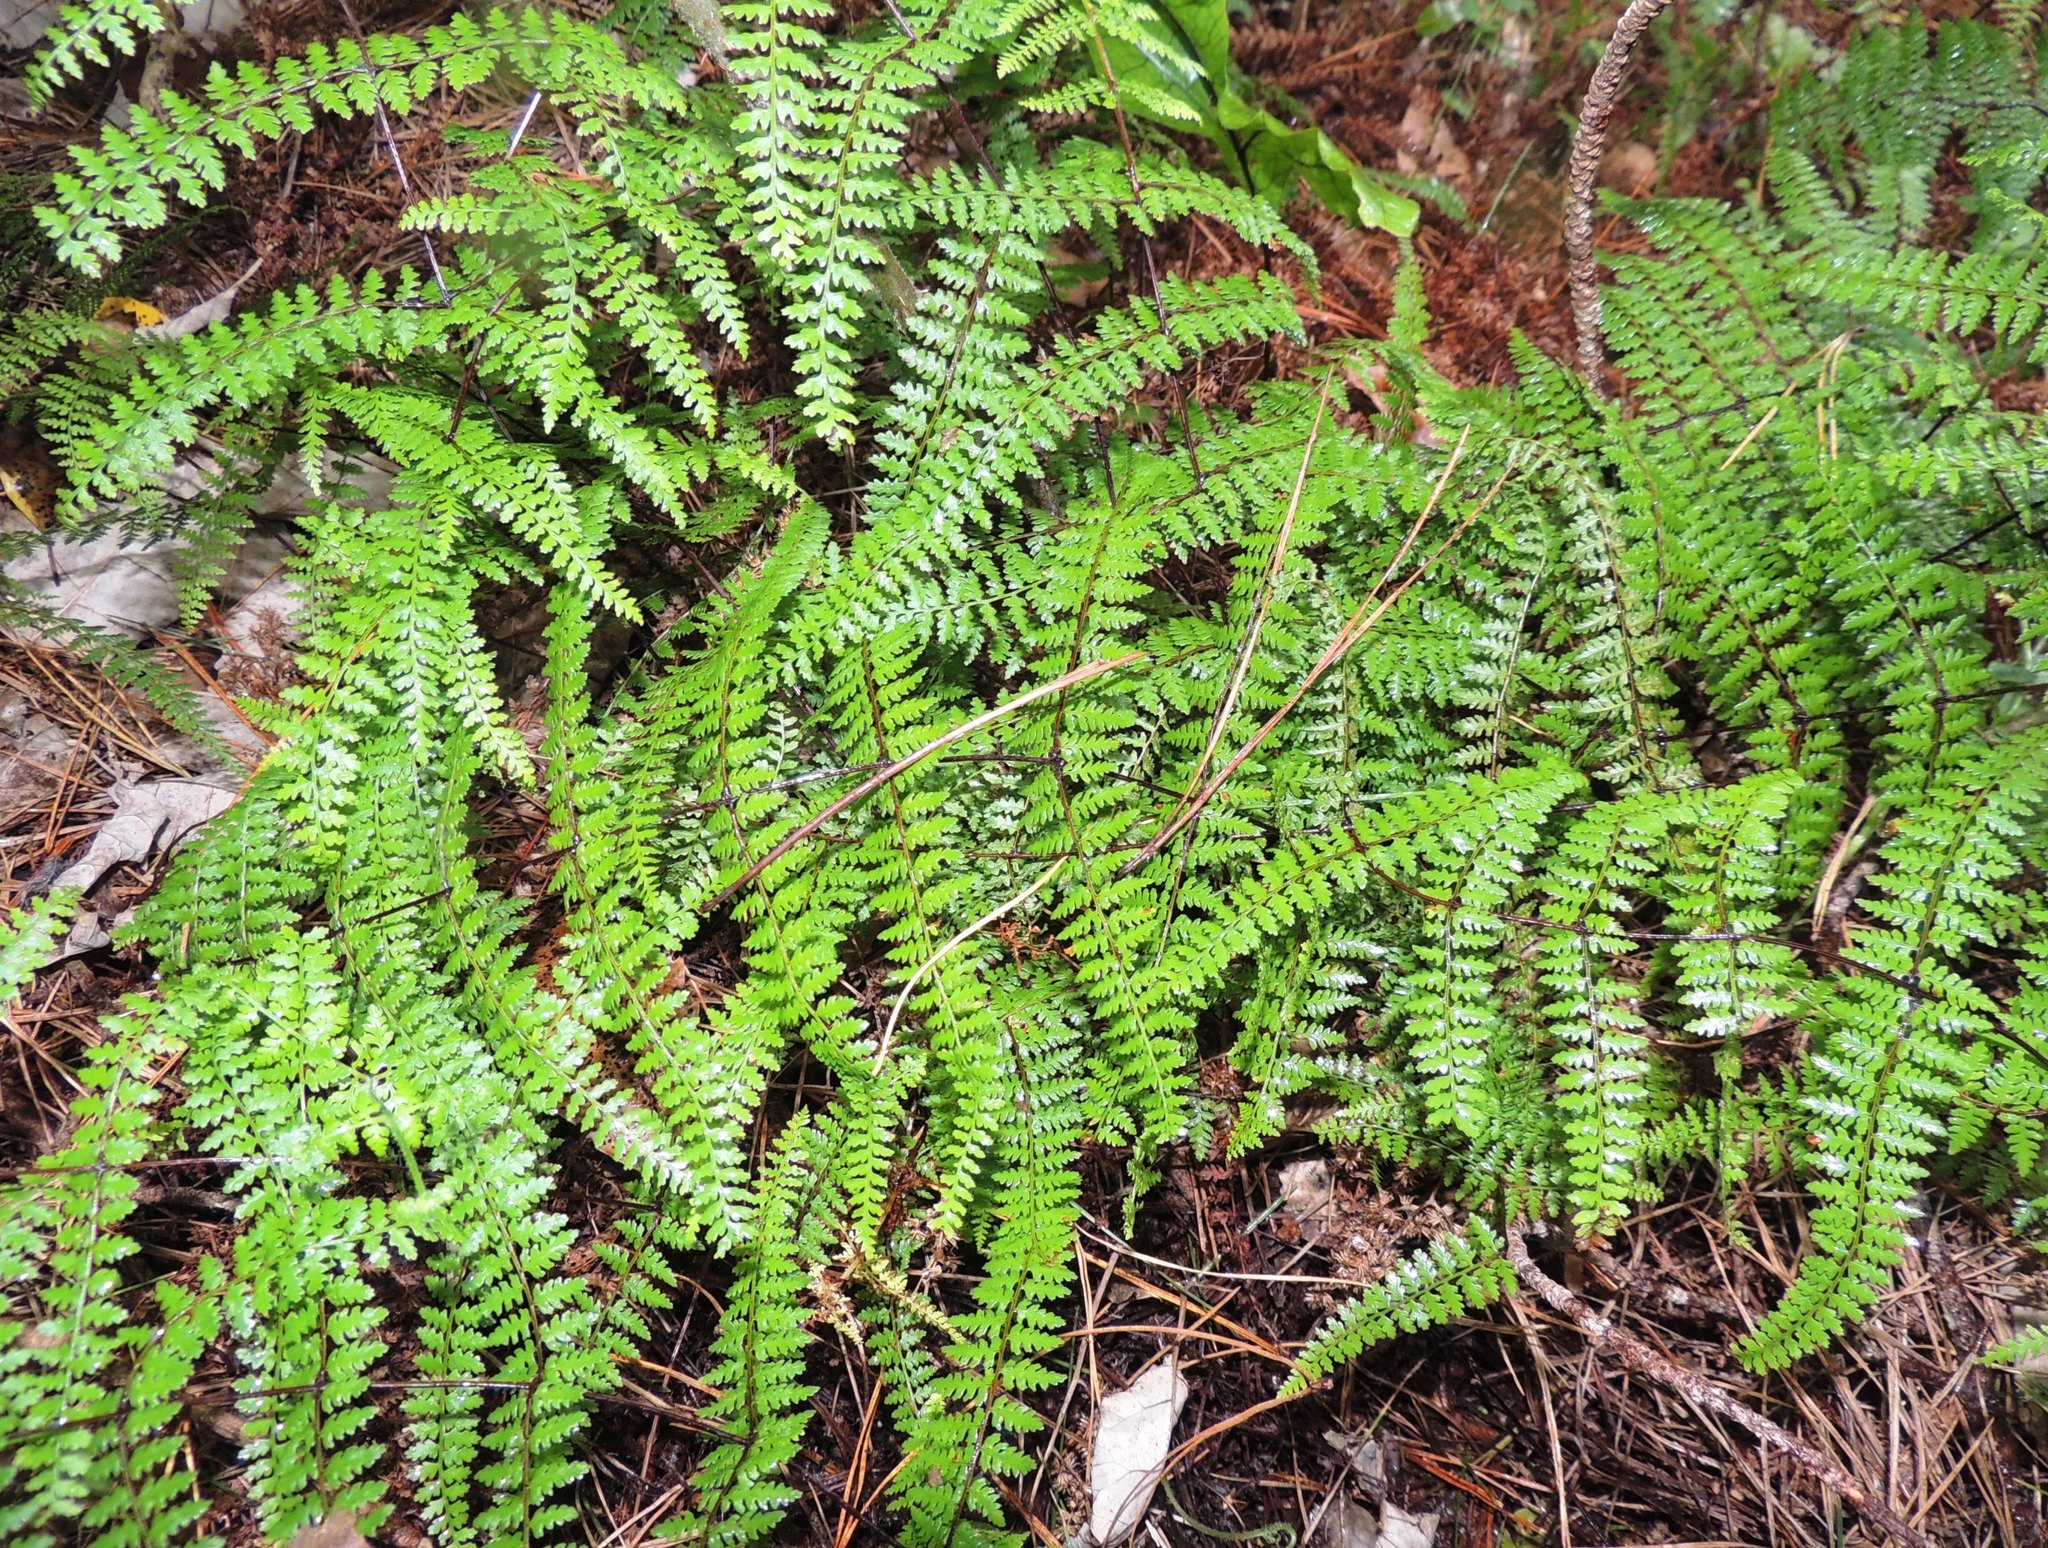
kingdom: Plantae
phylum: Tracheophyta
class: Polypodiopsida
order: Polypodiales
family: Dennstaedtiaceae
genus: Hiya
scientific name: Hiya distans
